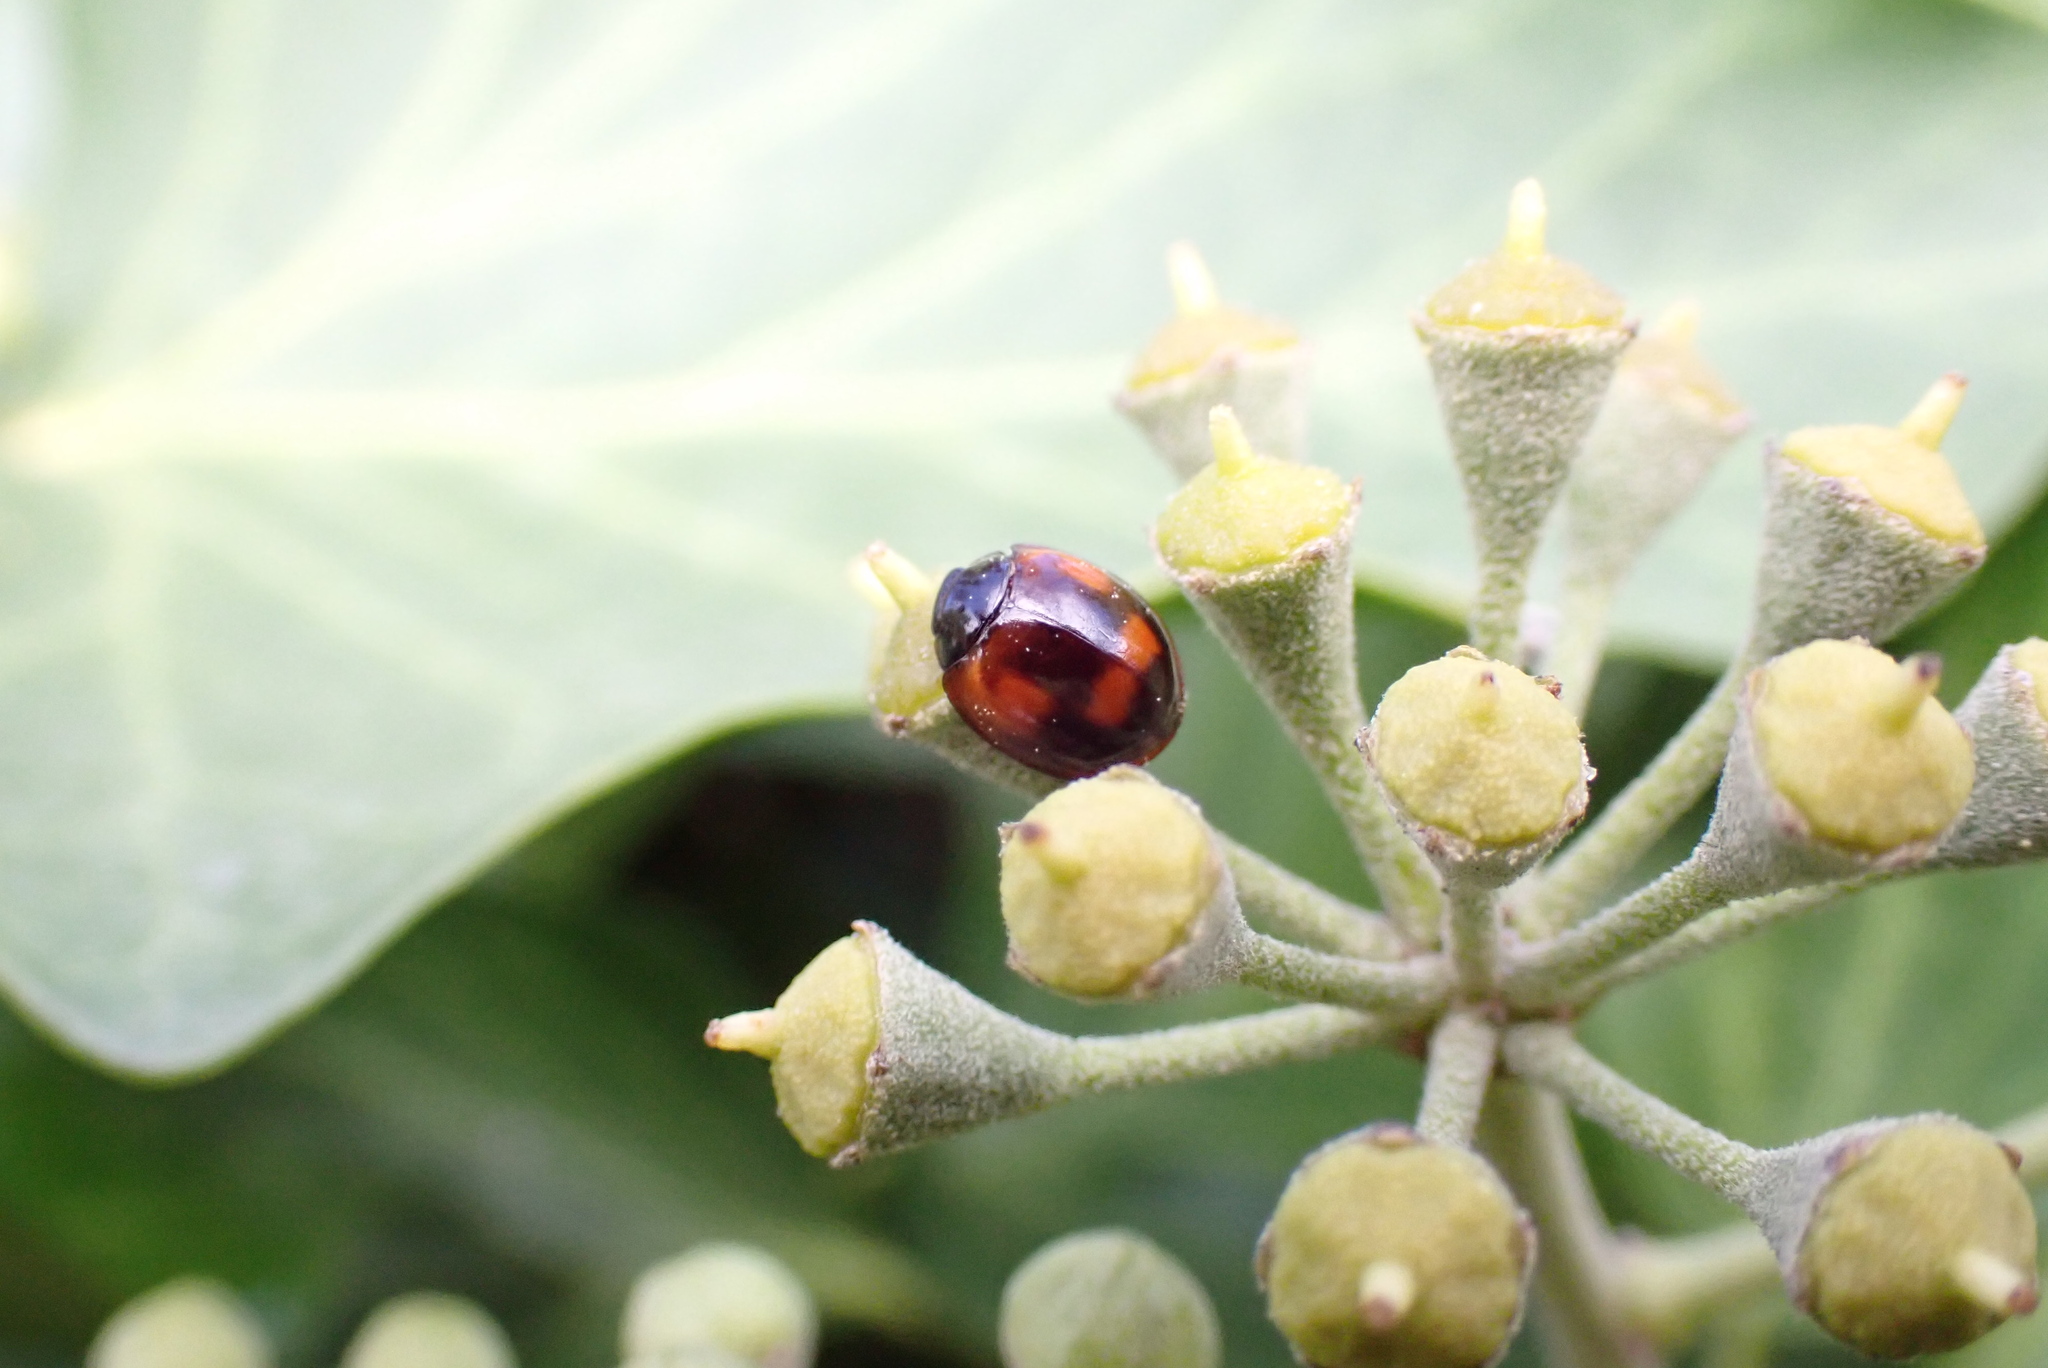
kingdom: Animalia
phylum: Arthropoda
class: Insecta
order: Coleoptera
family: Coccinellidae
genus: Brumus
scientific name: Brumus quadripustulatus
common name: Ladybird beetle
